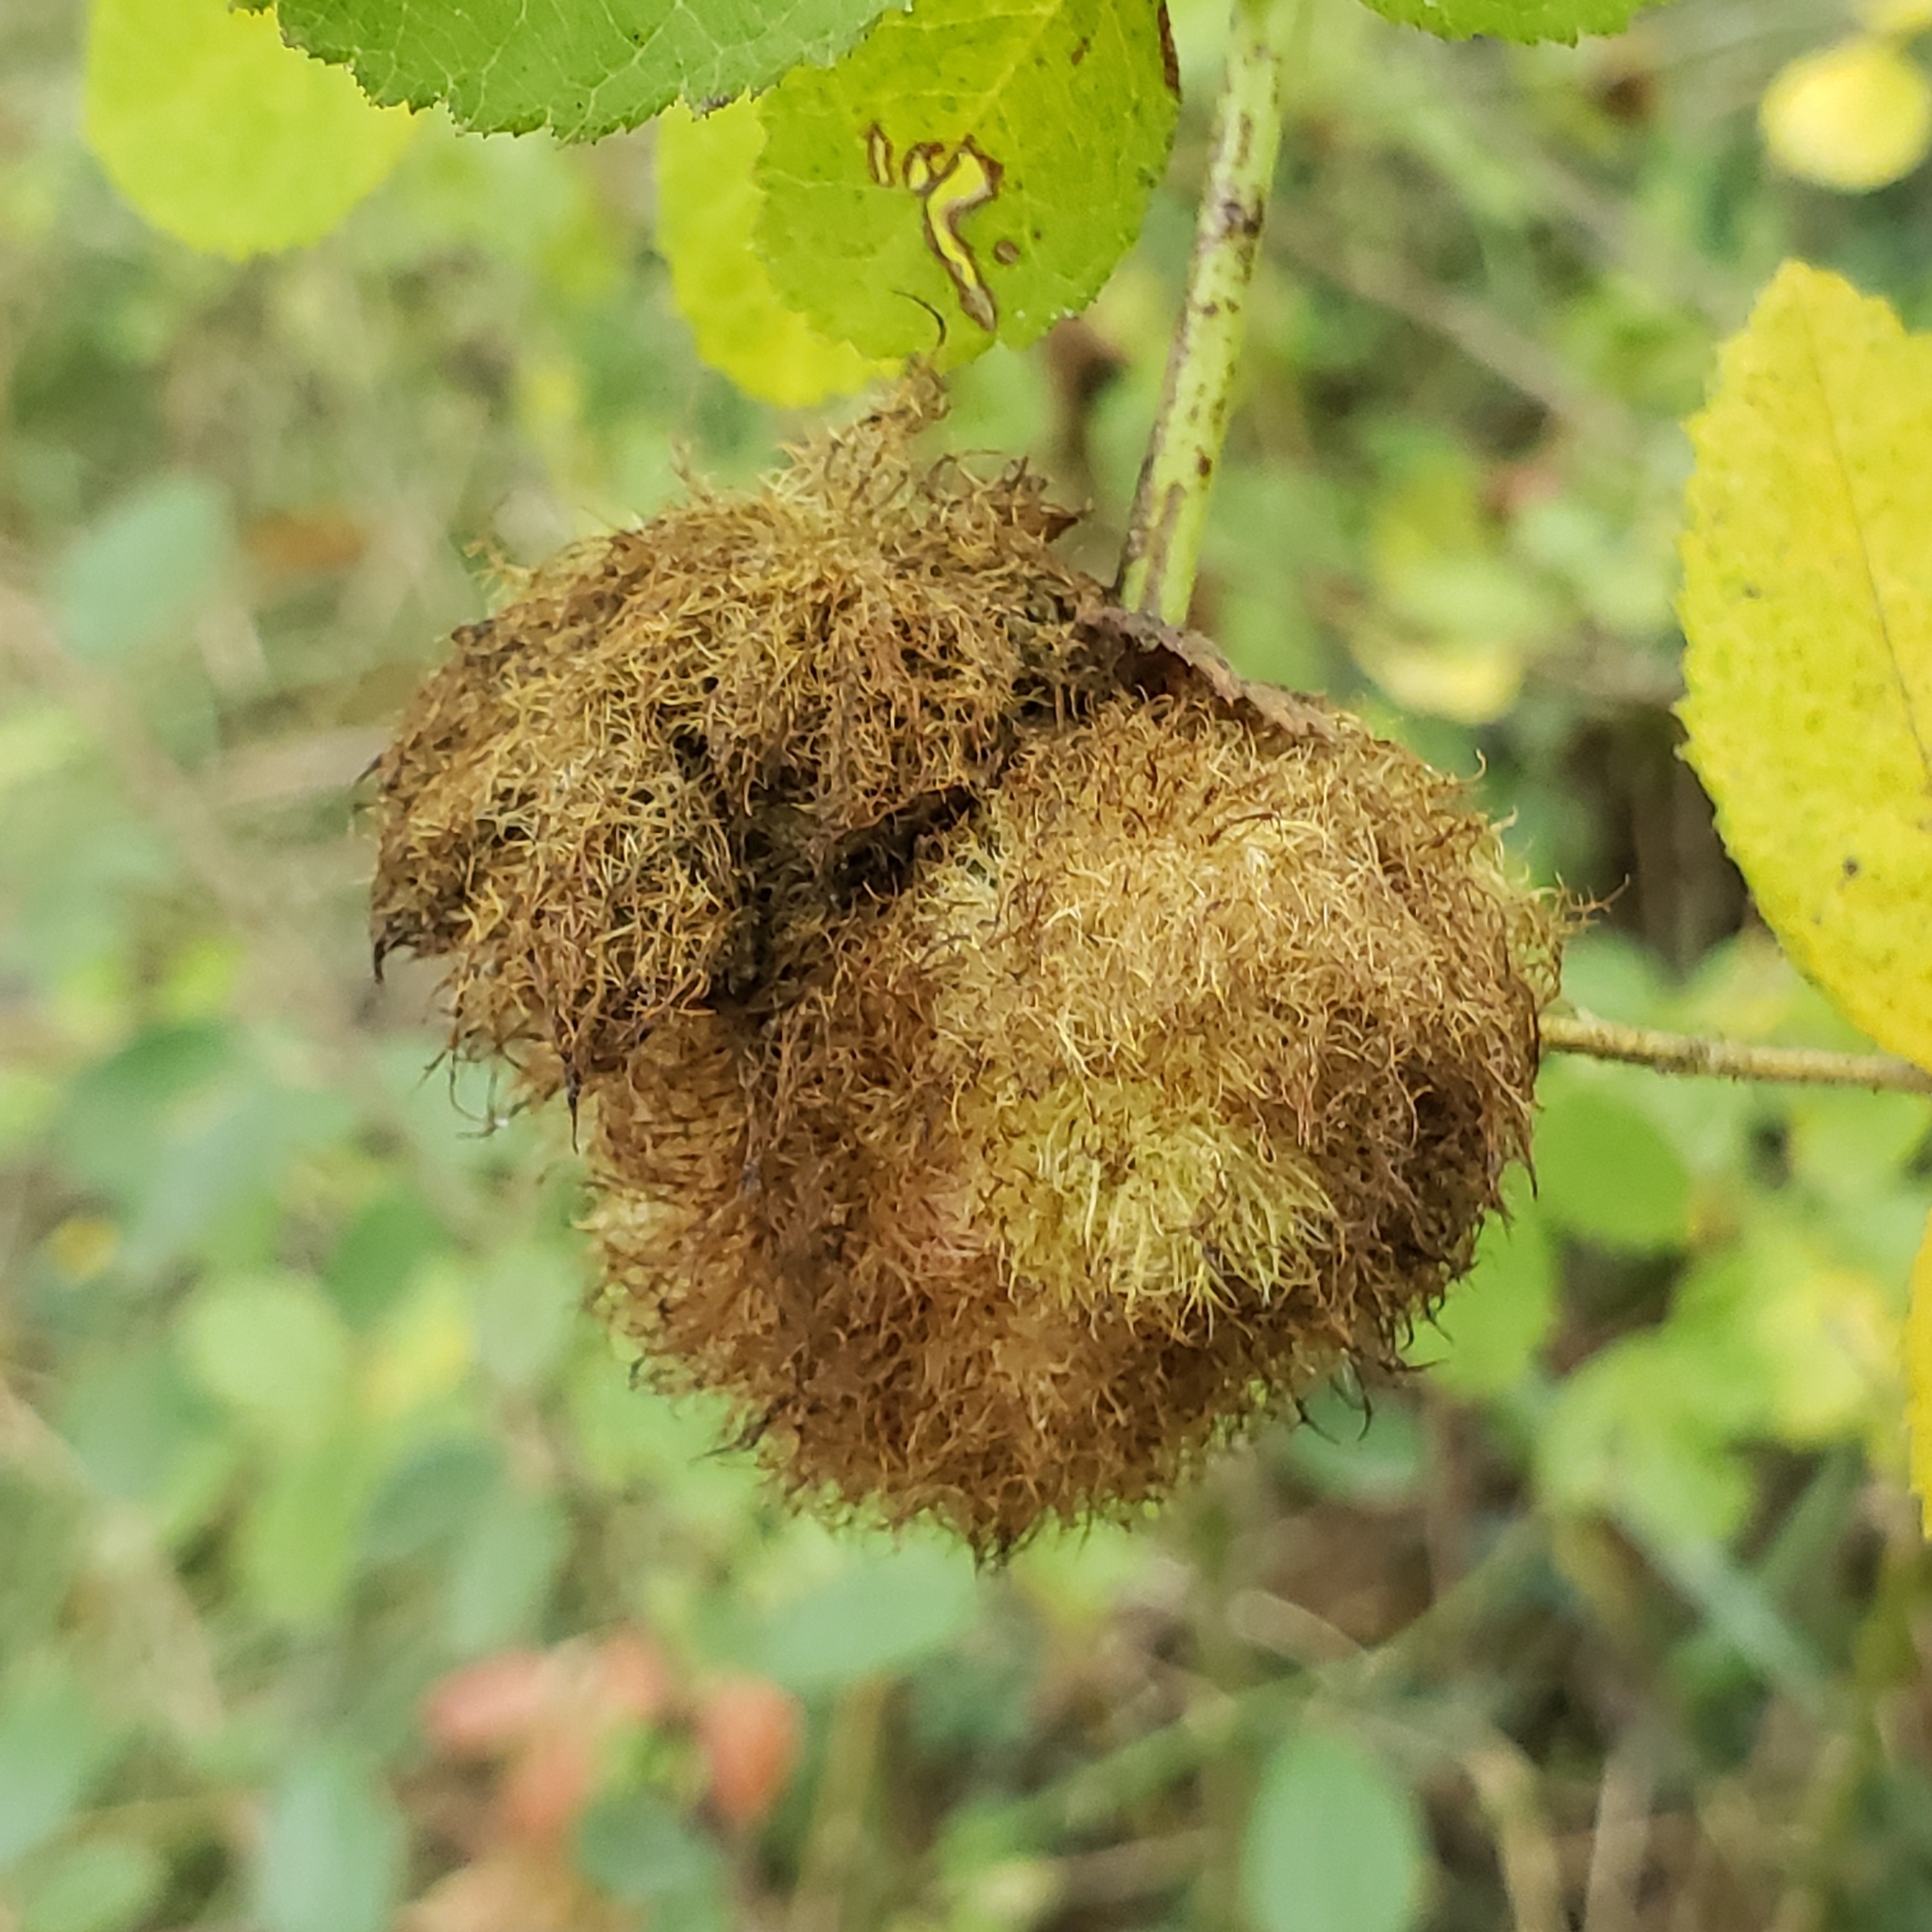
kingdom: Animalia
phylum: Arthropoda
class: Insecta
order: Hymenoptera
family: Cynipidae
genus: Diplolepis
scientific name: Diplolepis rosae
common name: Bedeguar gall
